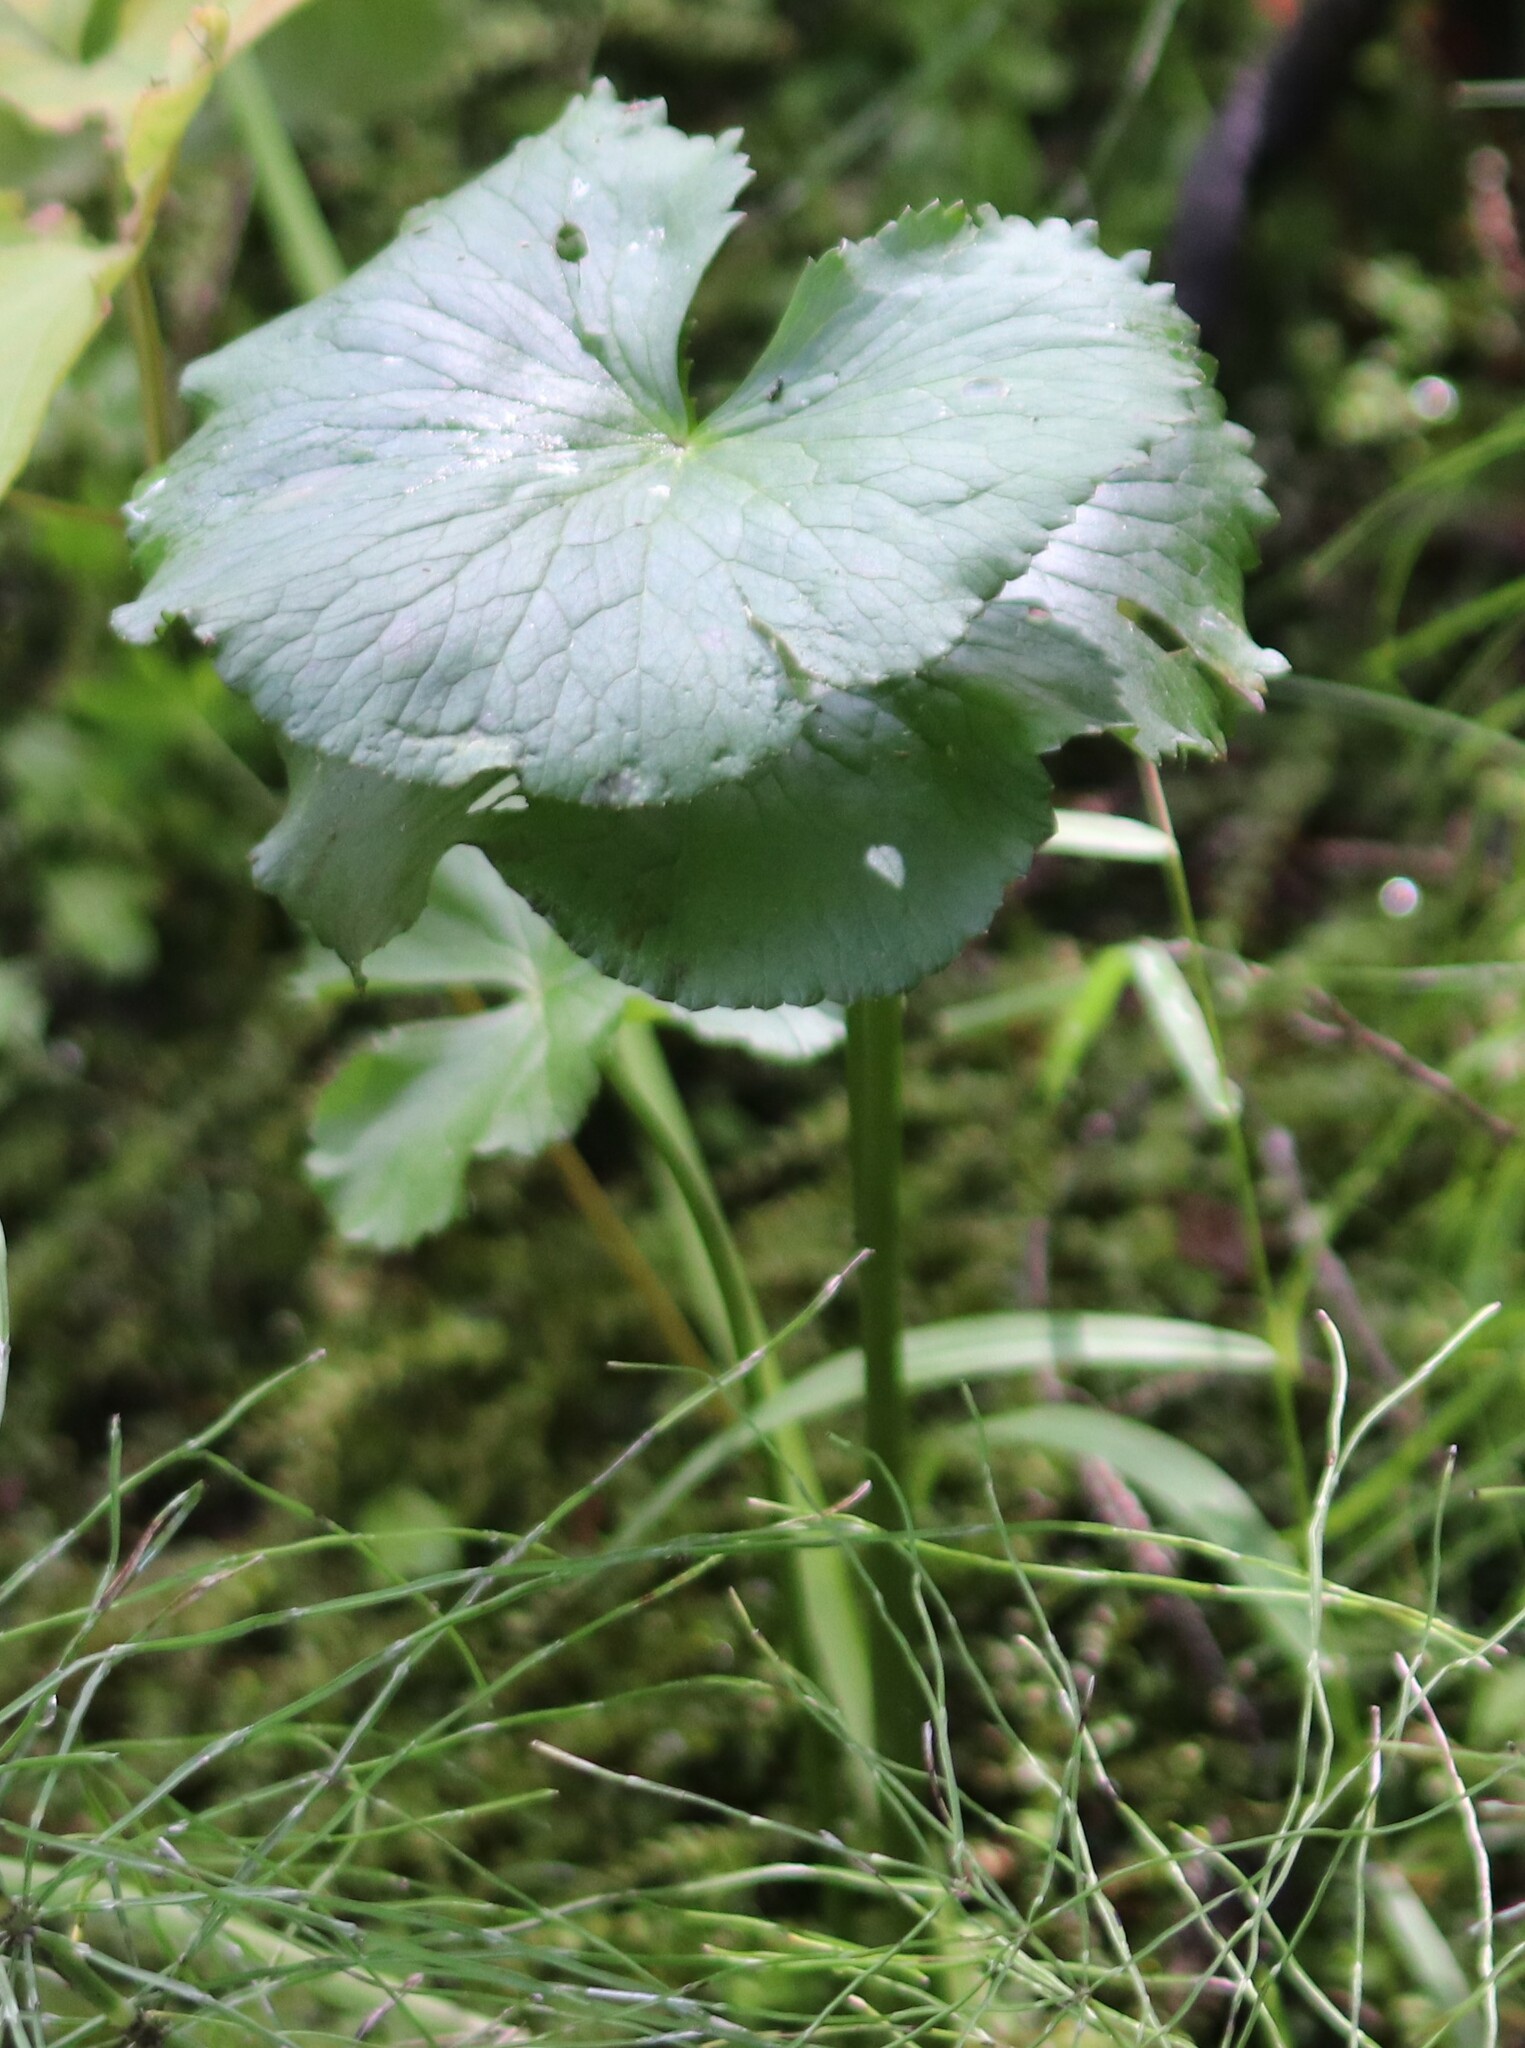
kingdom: Plantae
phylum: Tracheophyta
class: Magnoliopsida
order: Ranunculales
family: Ranunculaceae
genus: Caltha
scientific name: Caltha palustris
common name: Marsh marigold
